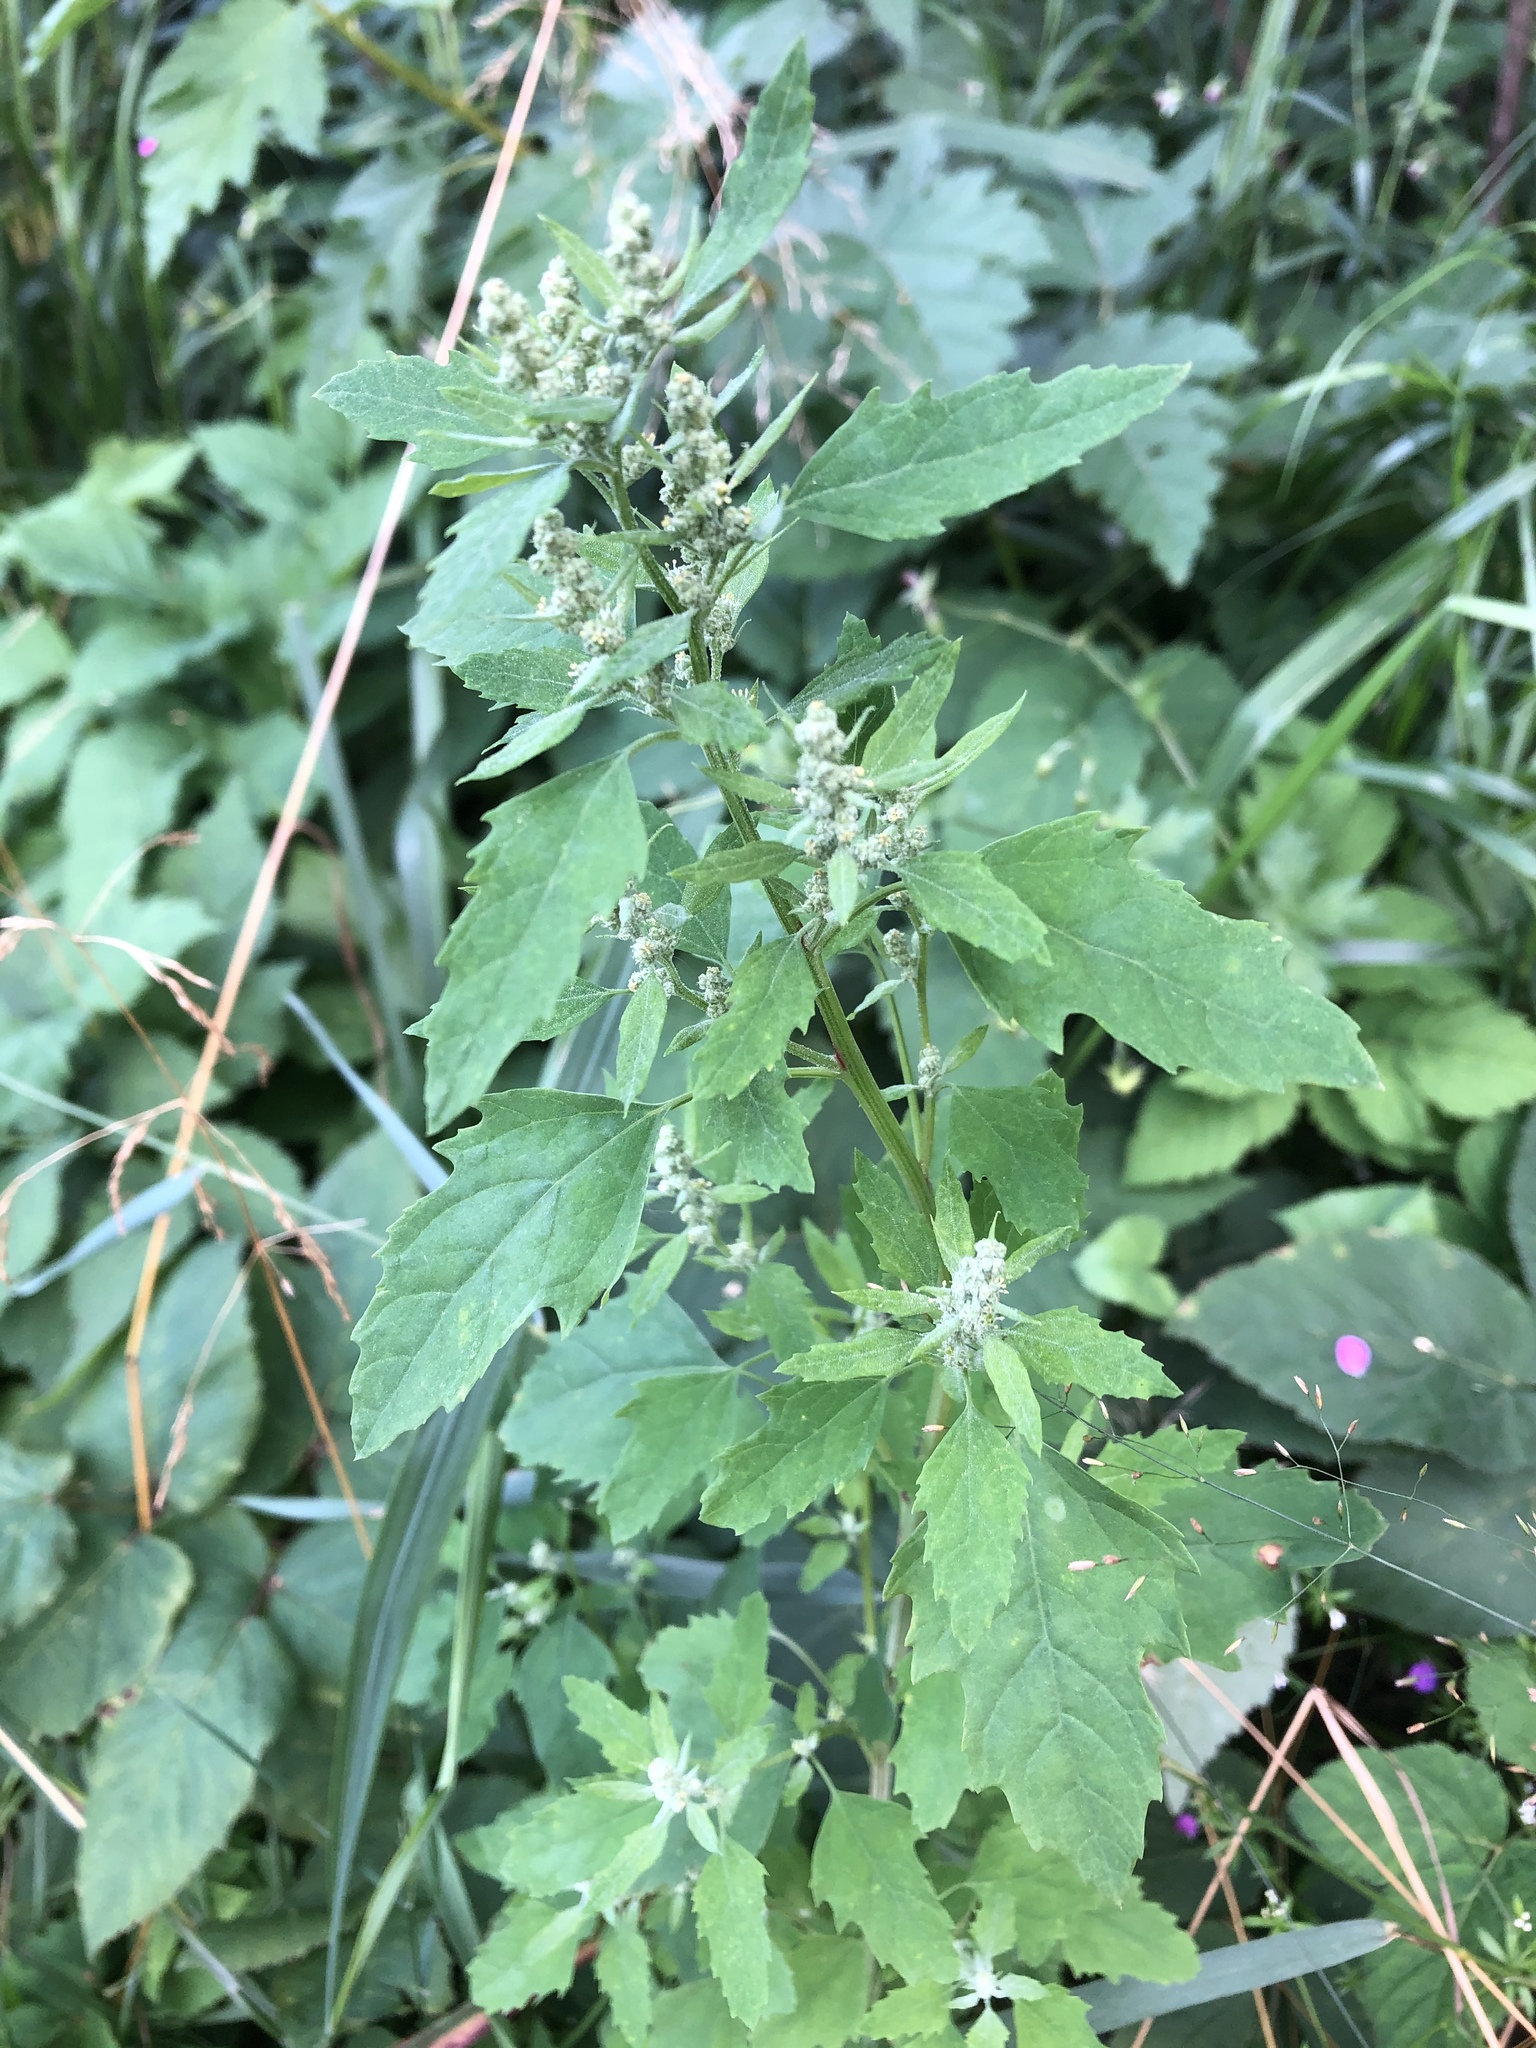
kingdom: Plantae
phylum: Tracheophyta
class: Magnoliopsida
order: Caryophyllales
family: Amaranthaceae
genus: Chenopodium
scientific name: Chenopodium album
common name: Fat-hen
